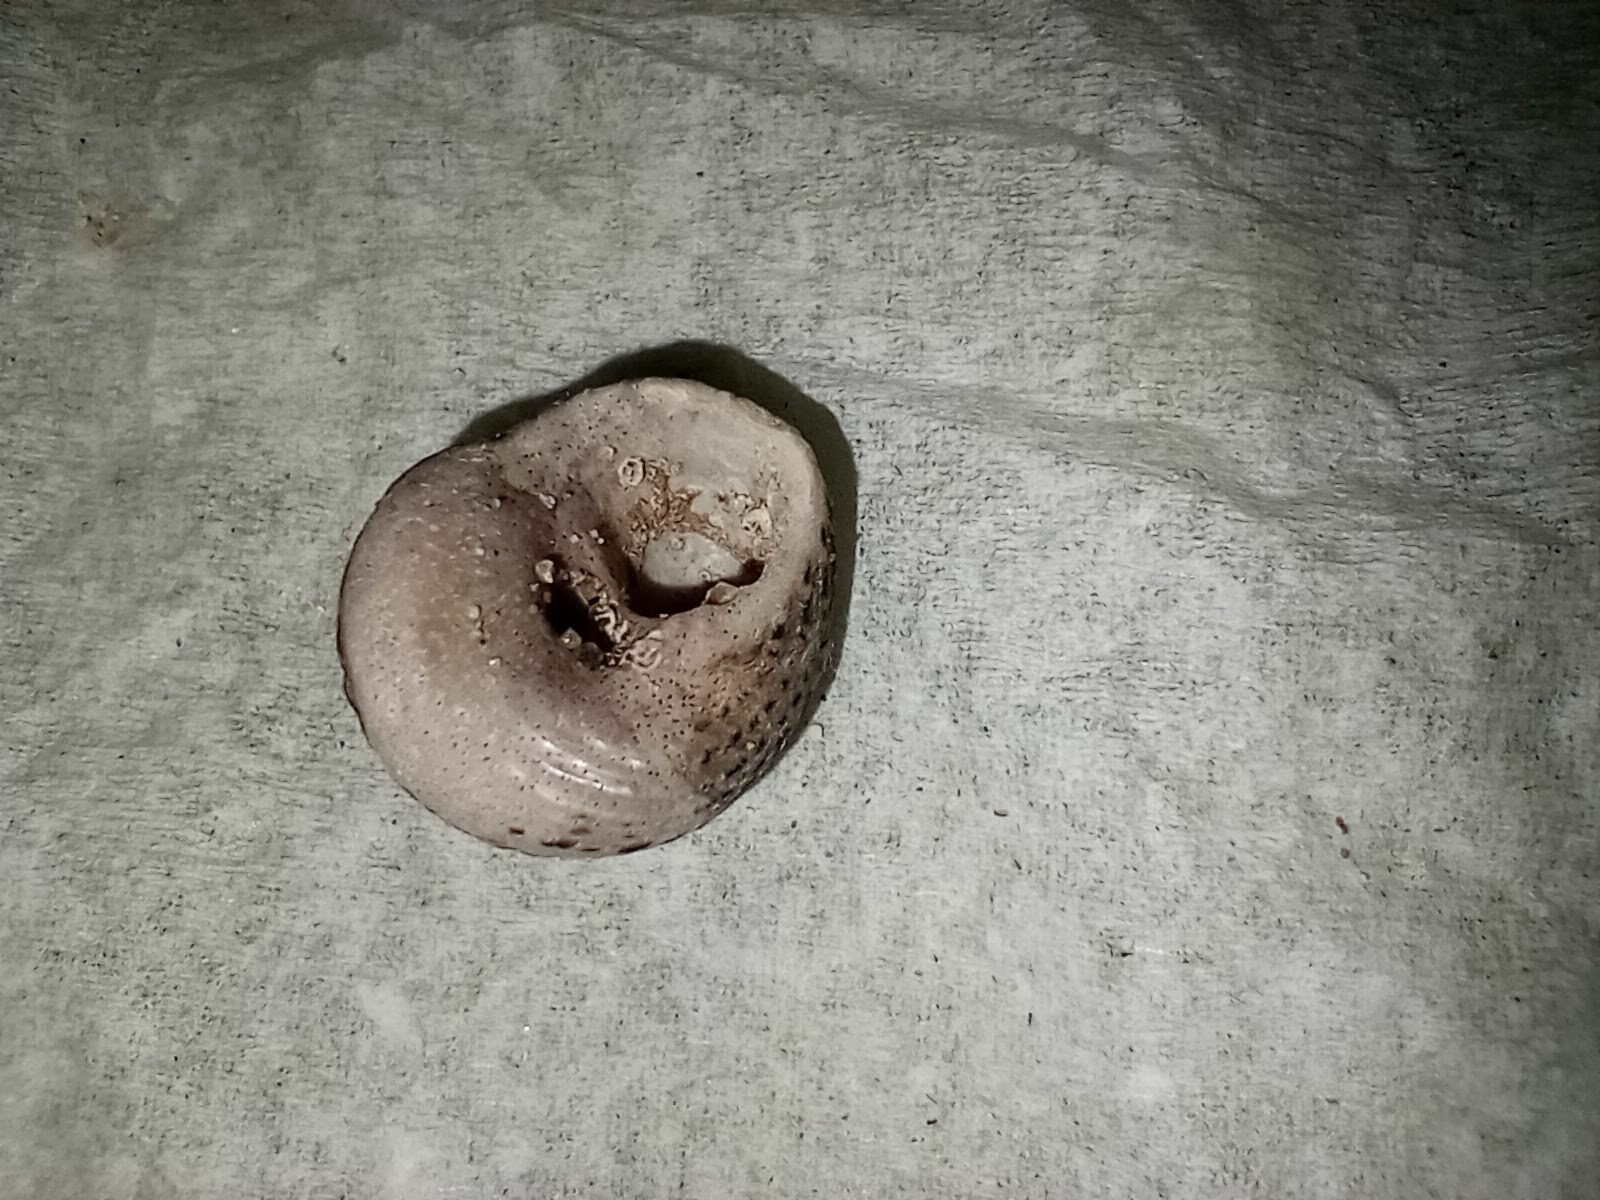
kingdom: Animalia
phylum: Mollusca
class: Gastropoda
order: Trochida
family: Tegulidae
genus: Tegula
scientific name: Tegula eiseni
